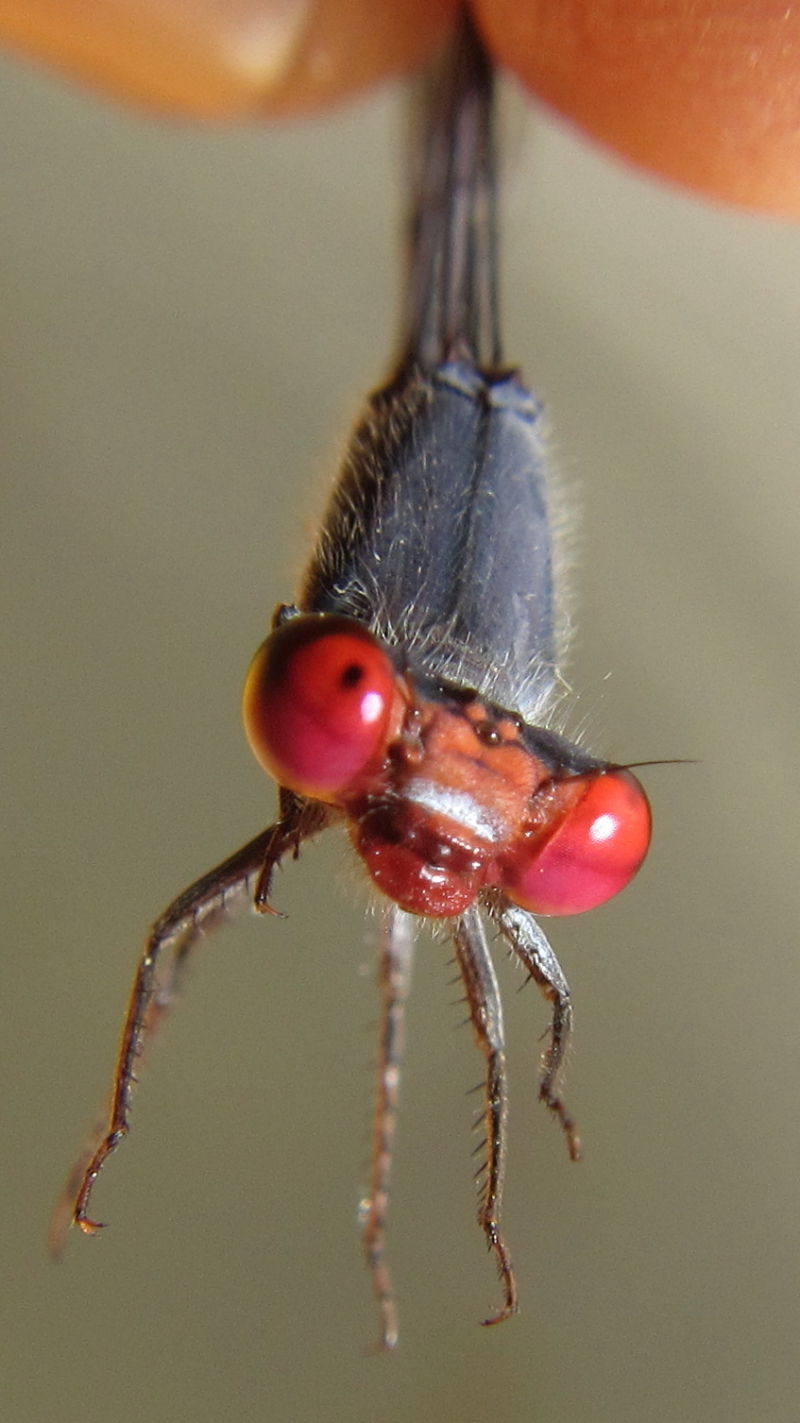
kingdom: Animalia
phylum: Arthropoda
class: Insecta
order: Odonata
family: Coenagrionidae
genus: Pseudagrion
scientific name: Pseudagrion sublacteum
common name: Cherry-eye sprite
